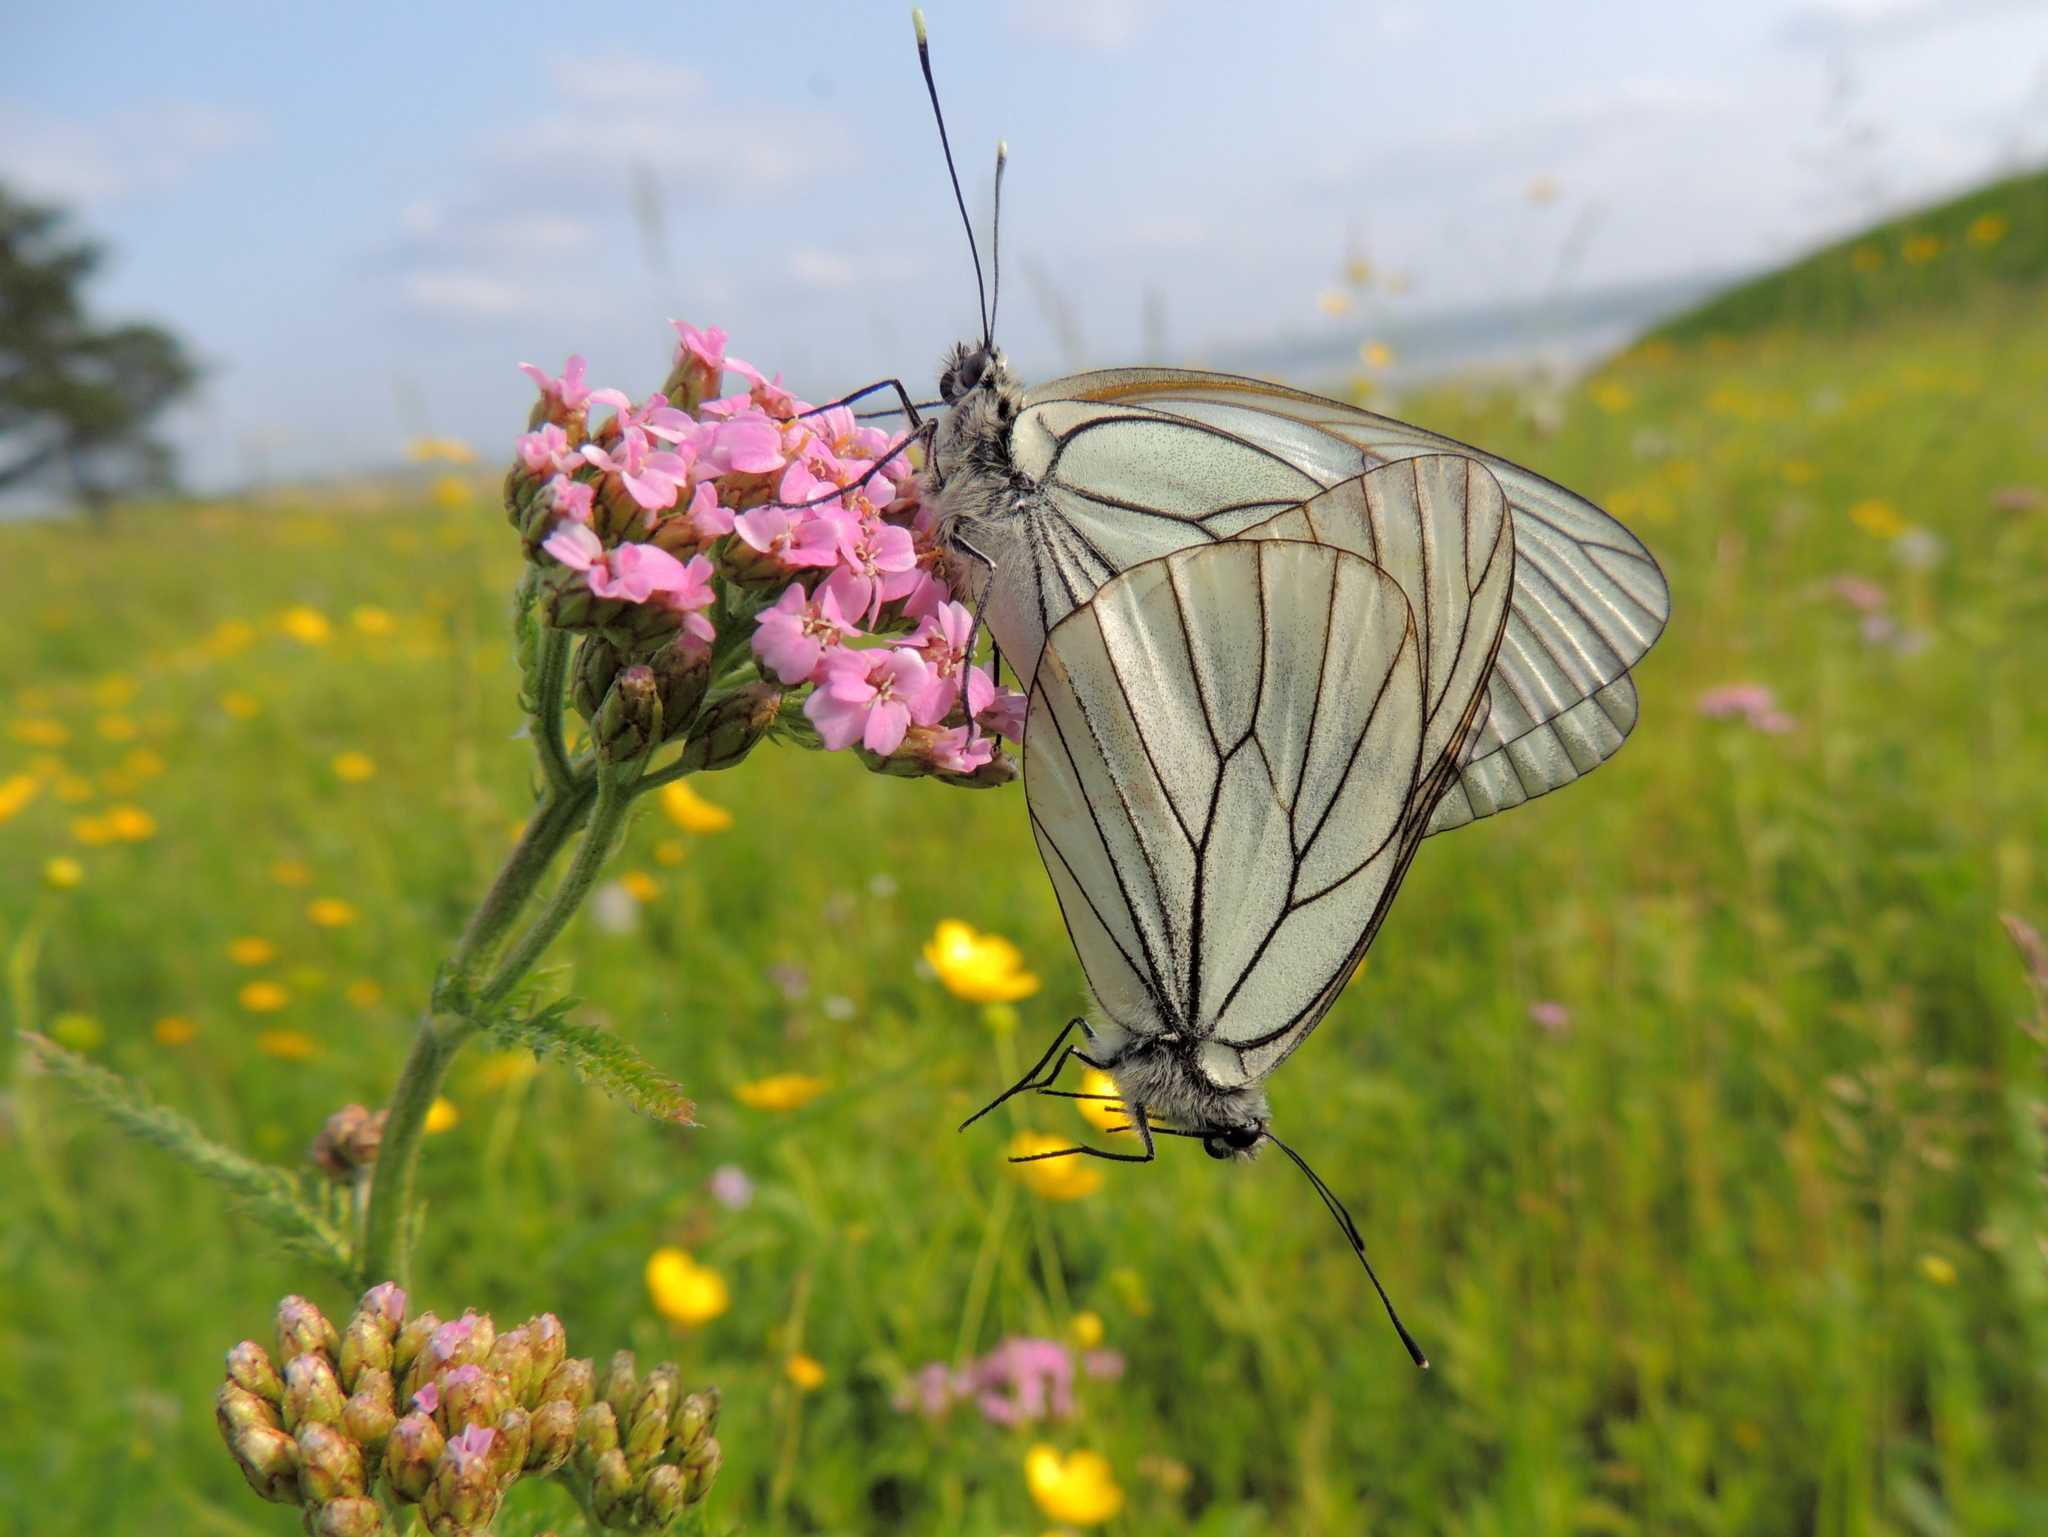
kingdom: Animalia
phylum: Arthropoda
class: Insecta
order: Lepidoptera
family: Pieridae
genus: Aporia
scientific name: Aporia crataegi
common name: Black-veined white
